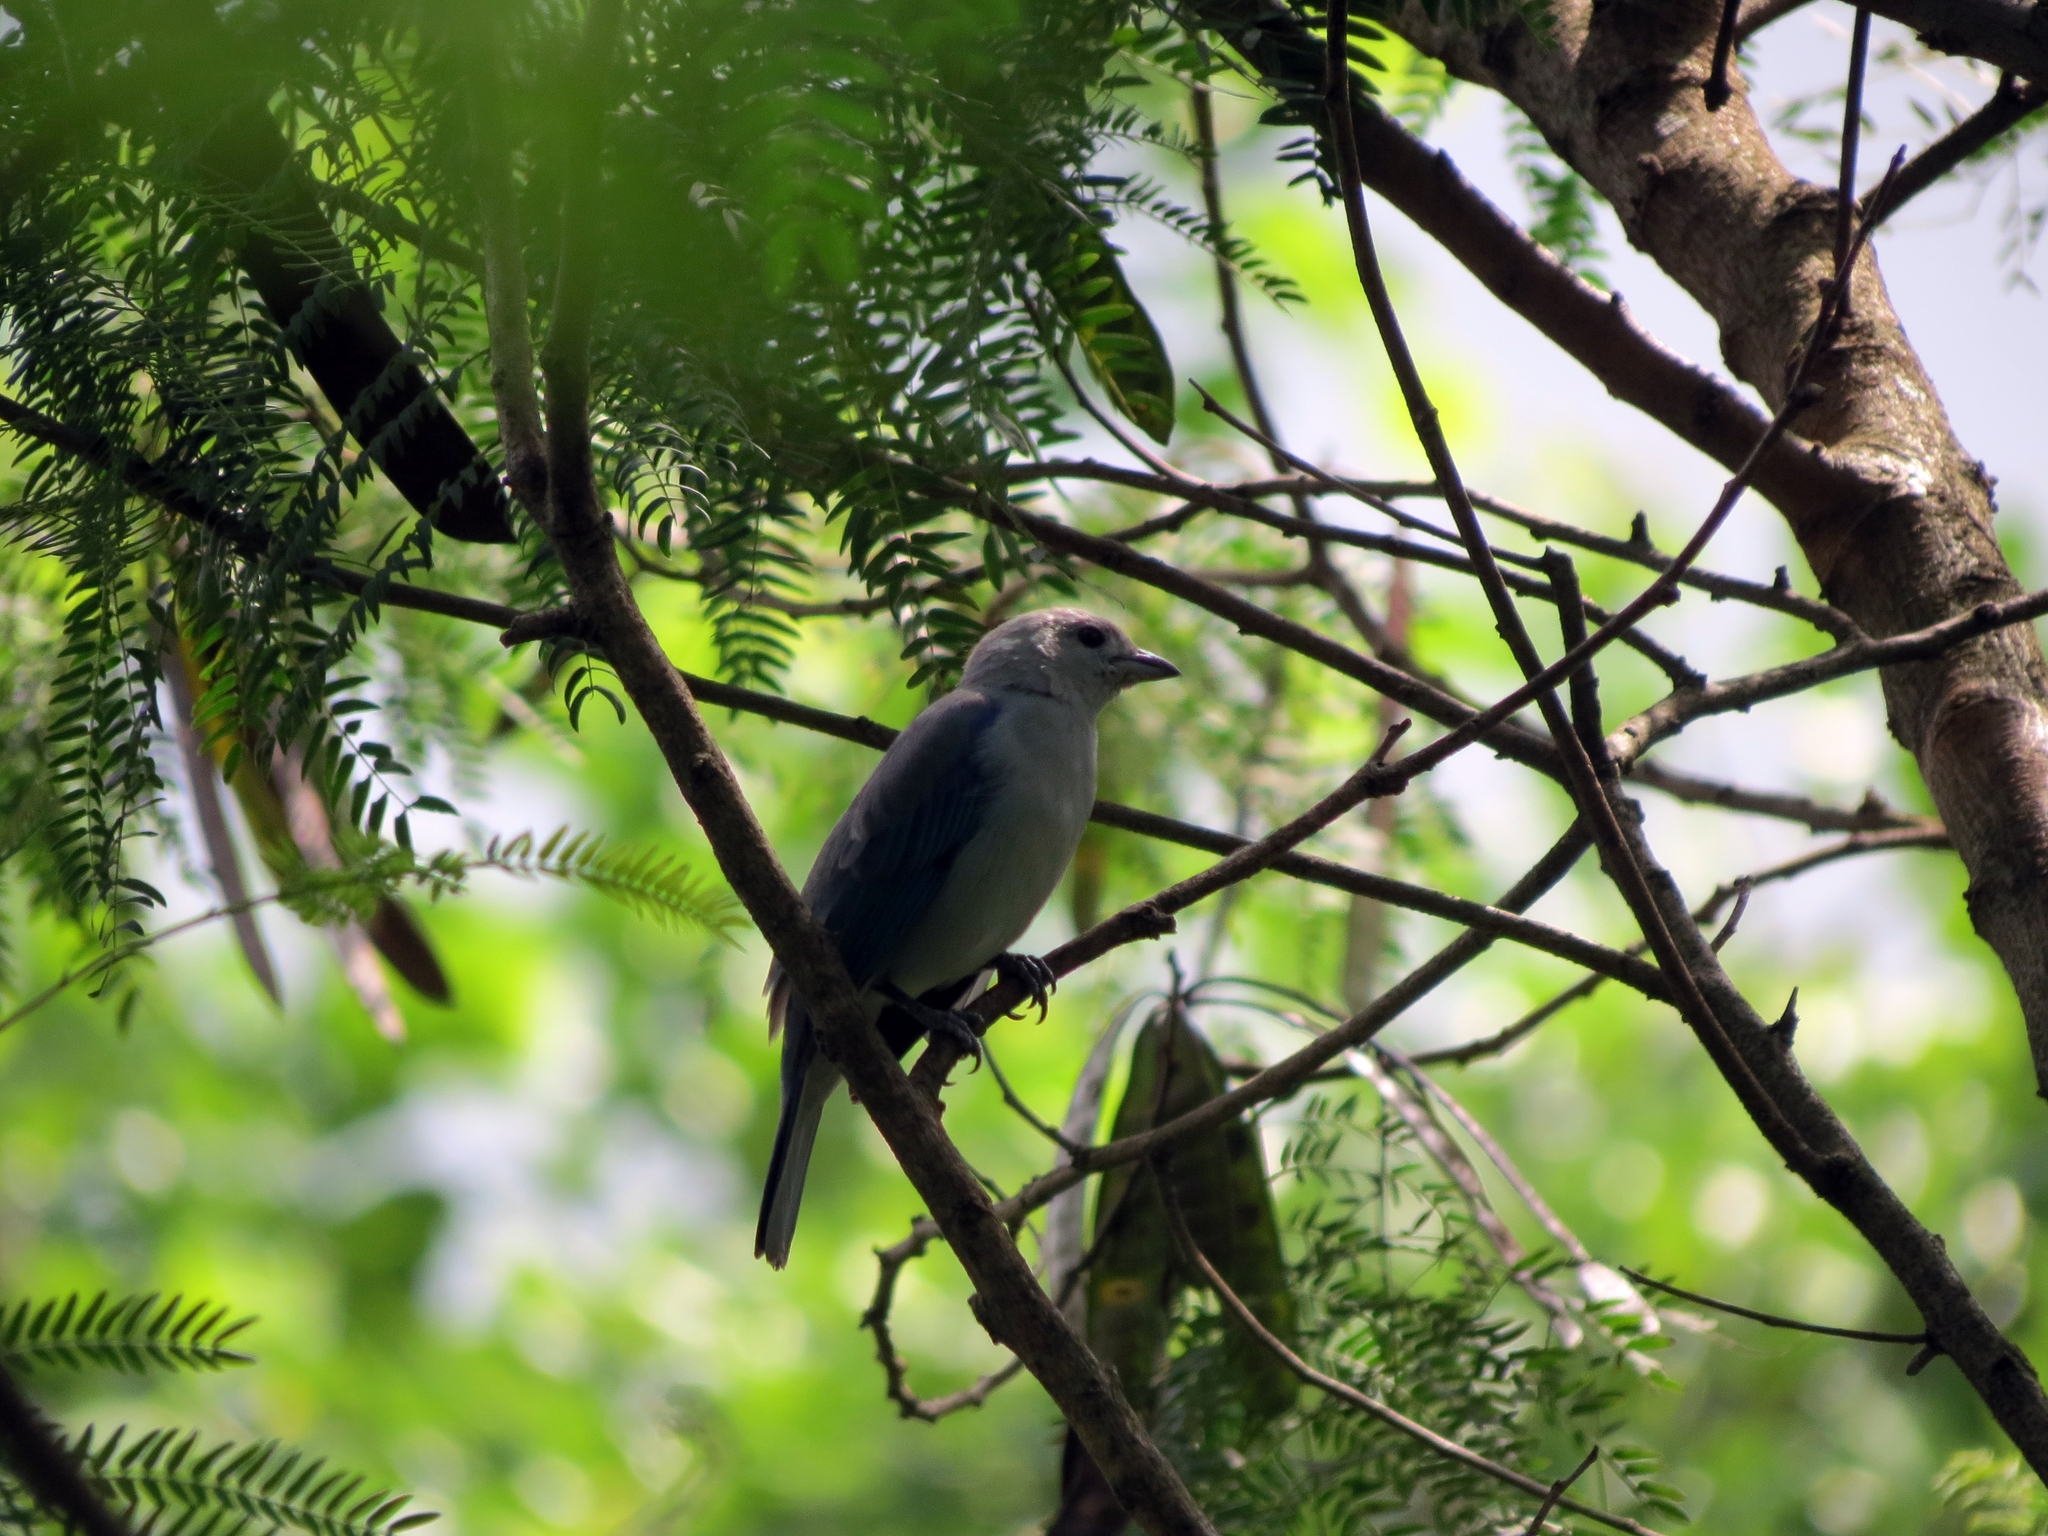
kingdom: Animalia
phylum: Chordata
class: Aves
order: Passeriformes
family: Thraupidae
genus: Thraupis
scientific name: Thraupis episcopus
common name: Blue-grey tanager
